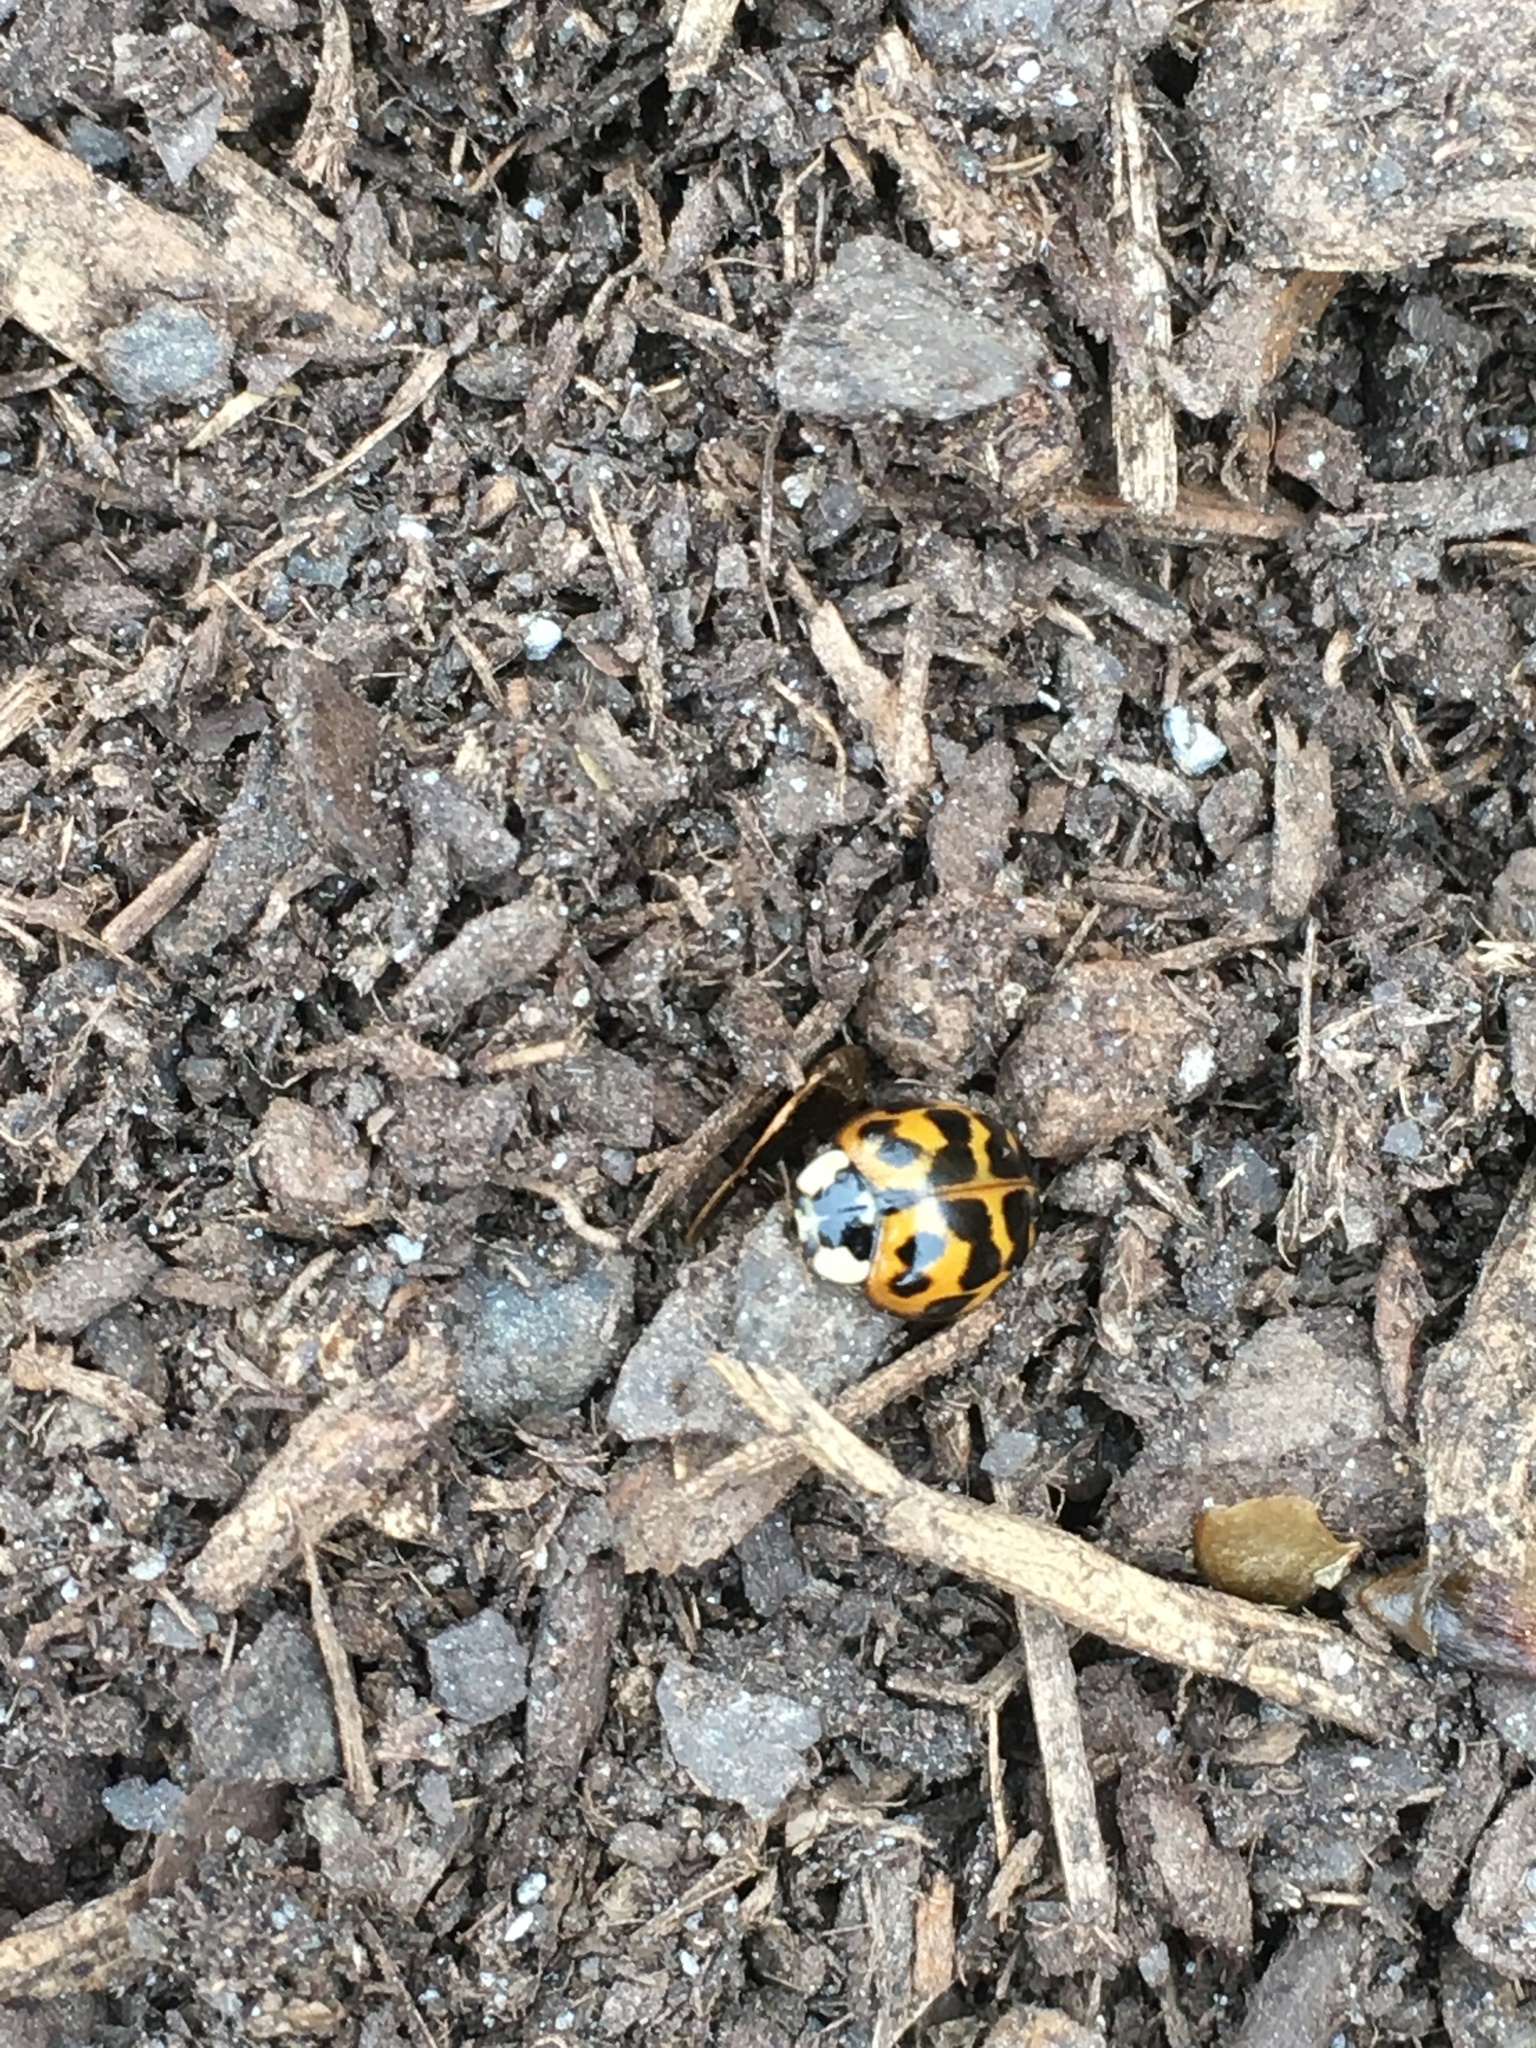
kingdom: Animalia
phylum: Arthropoda
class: Insecta
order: Coleoptera
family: Coccinellidae
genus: Harmonia
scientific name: Harmonia axyridis
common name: Harlequin ladybird
